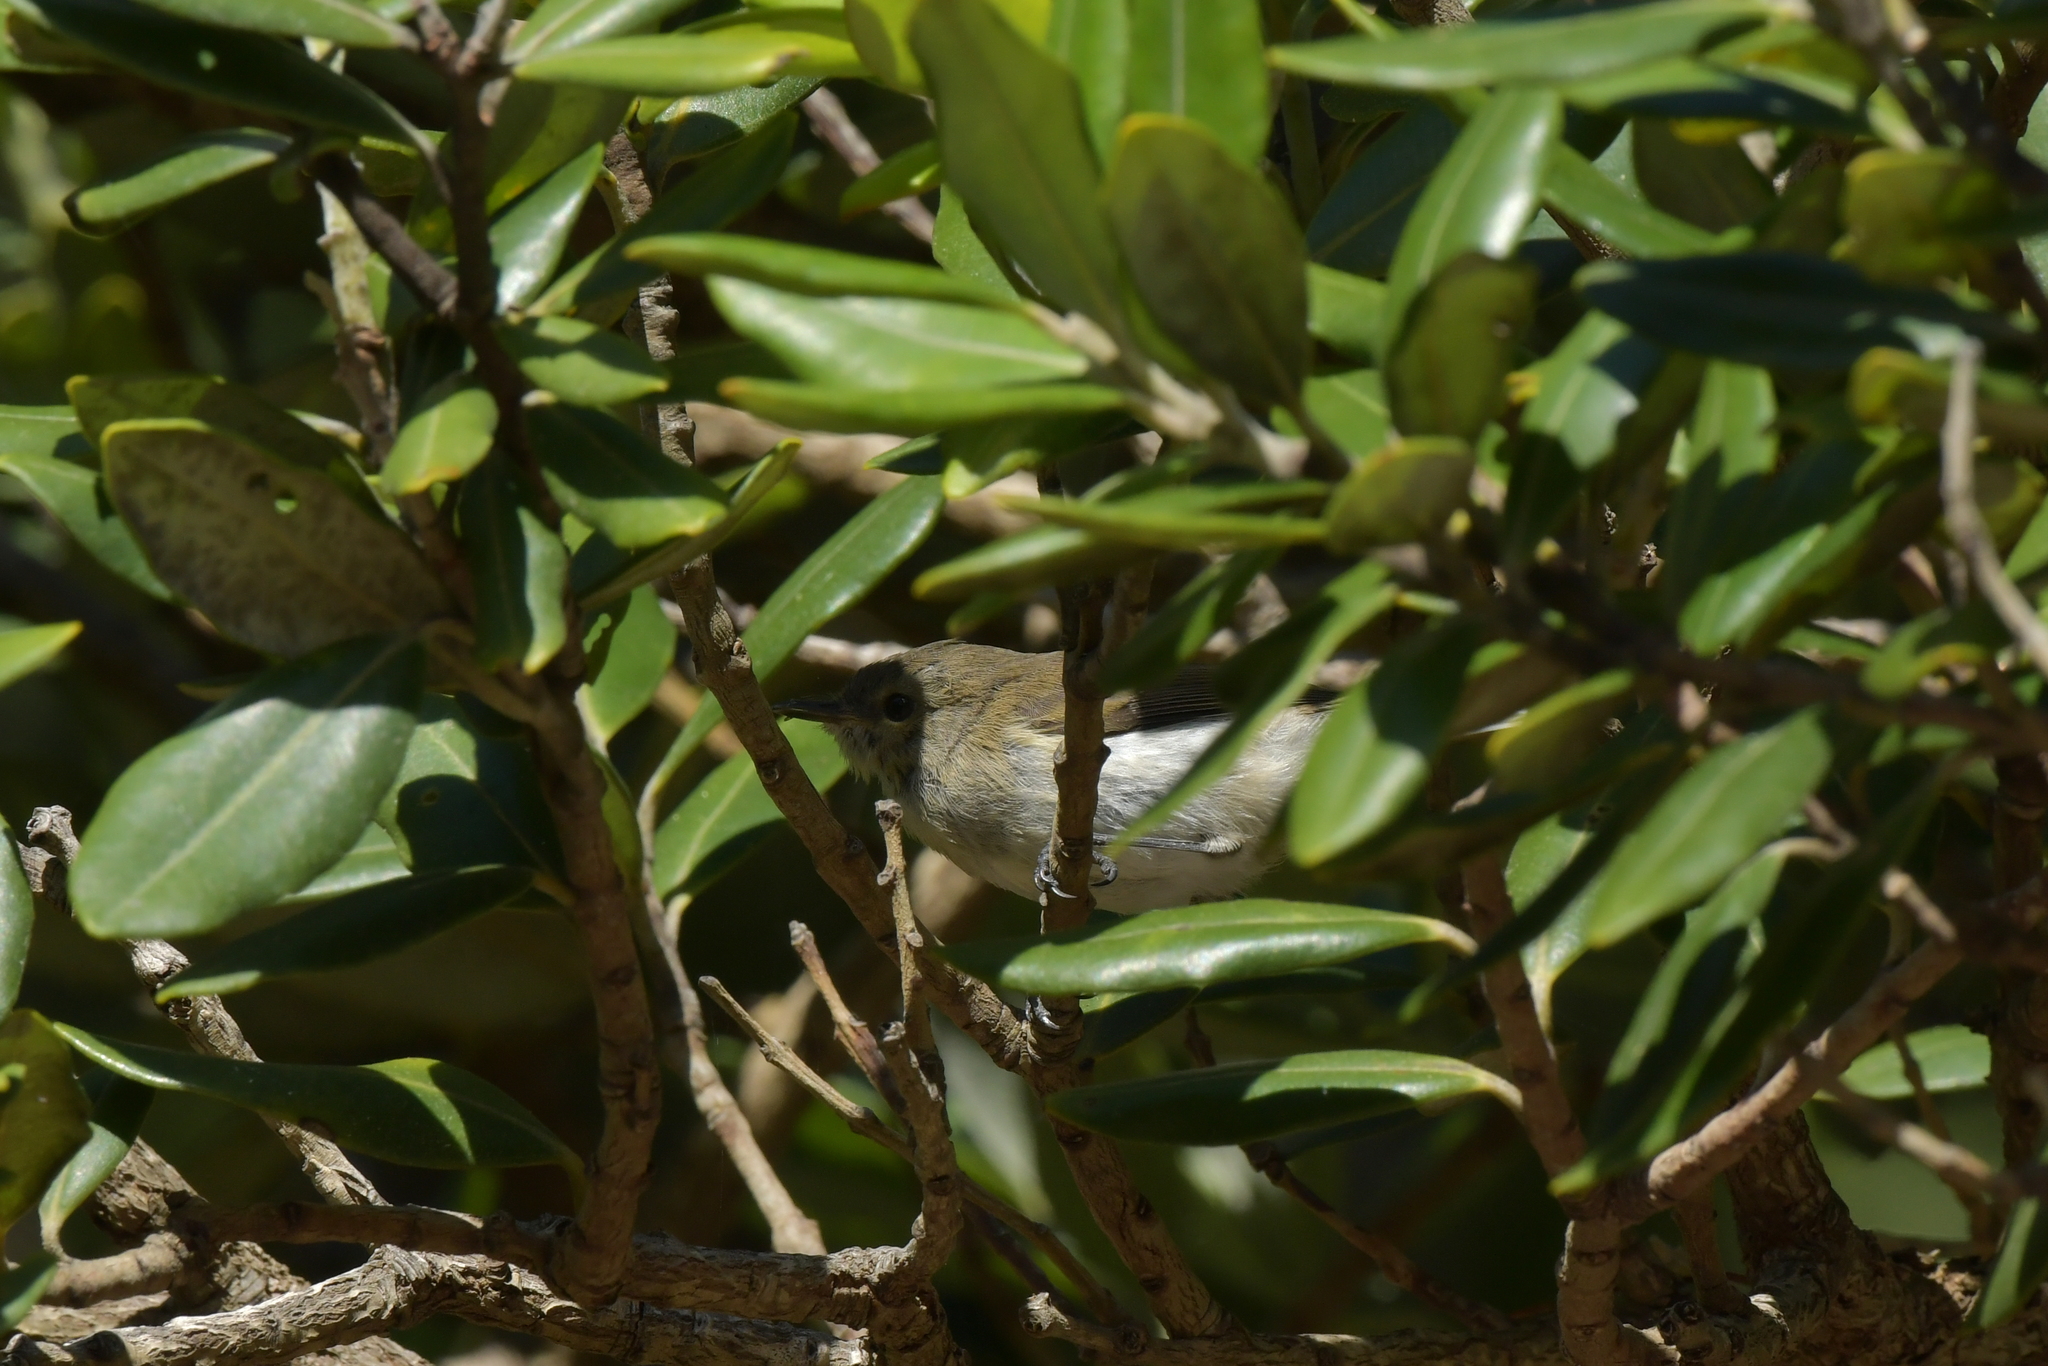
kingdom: Animalia
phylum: Chordata
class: Aves
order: Passeriformes
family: Acanthizidae
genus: Gerygone
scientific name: Gerygone igata
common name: Grey gerygone
